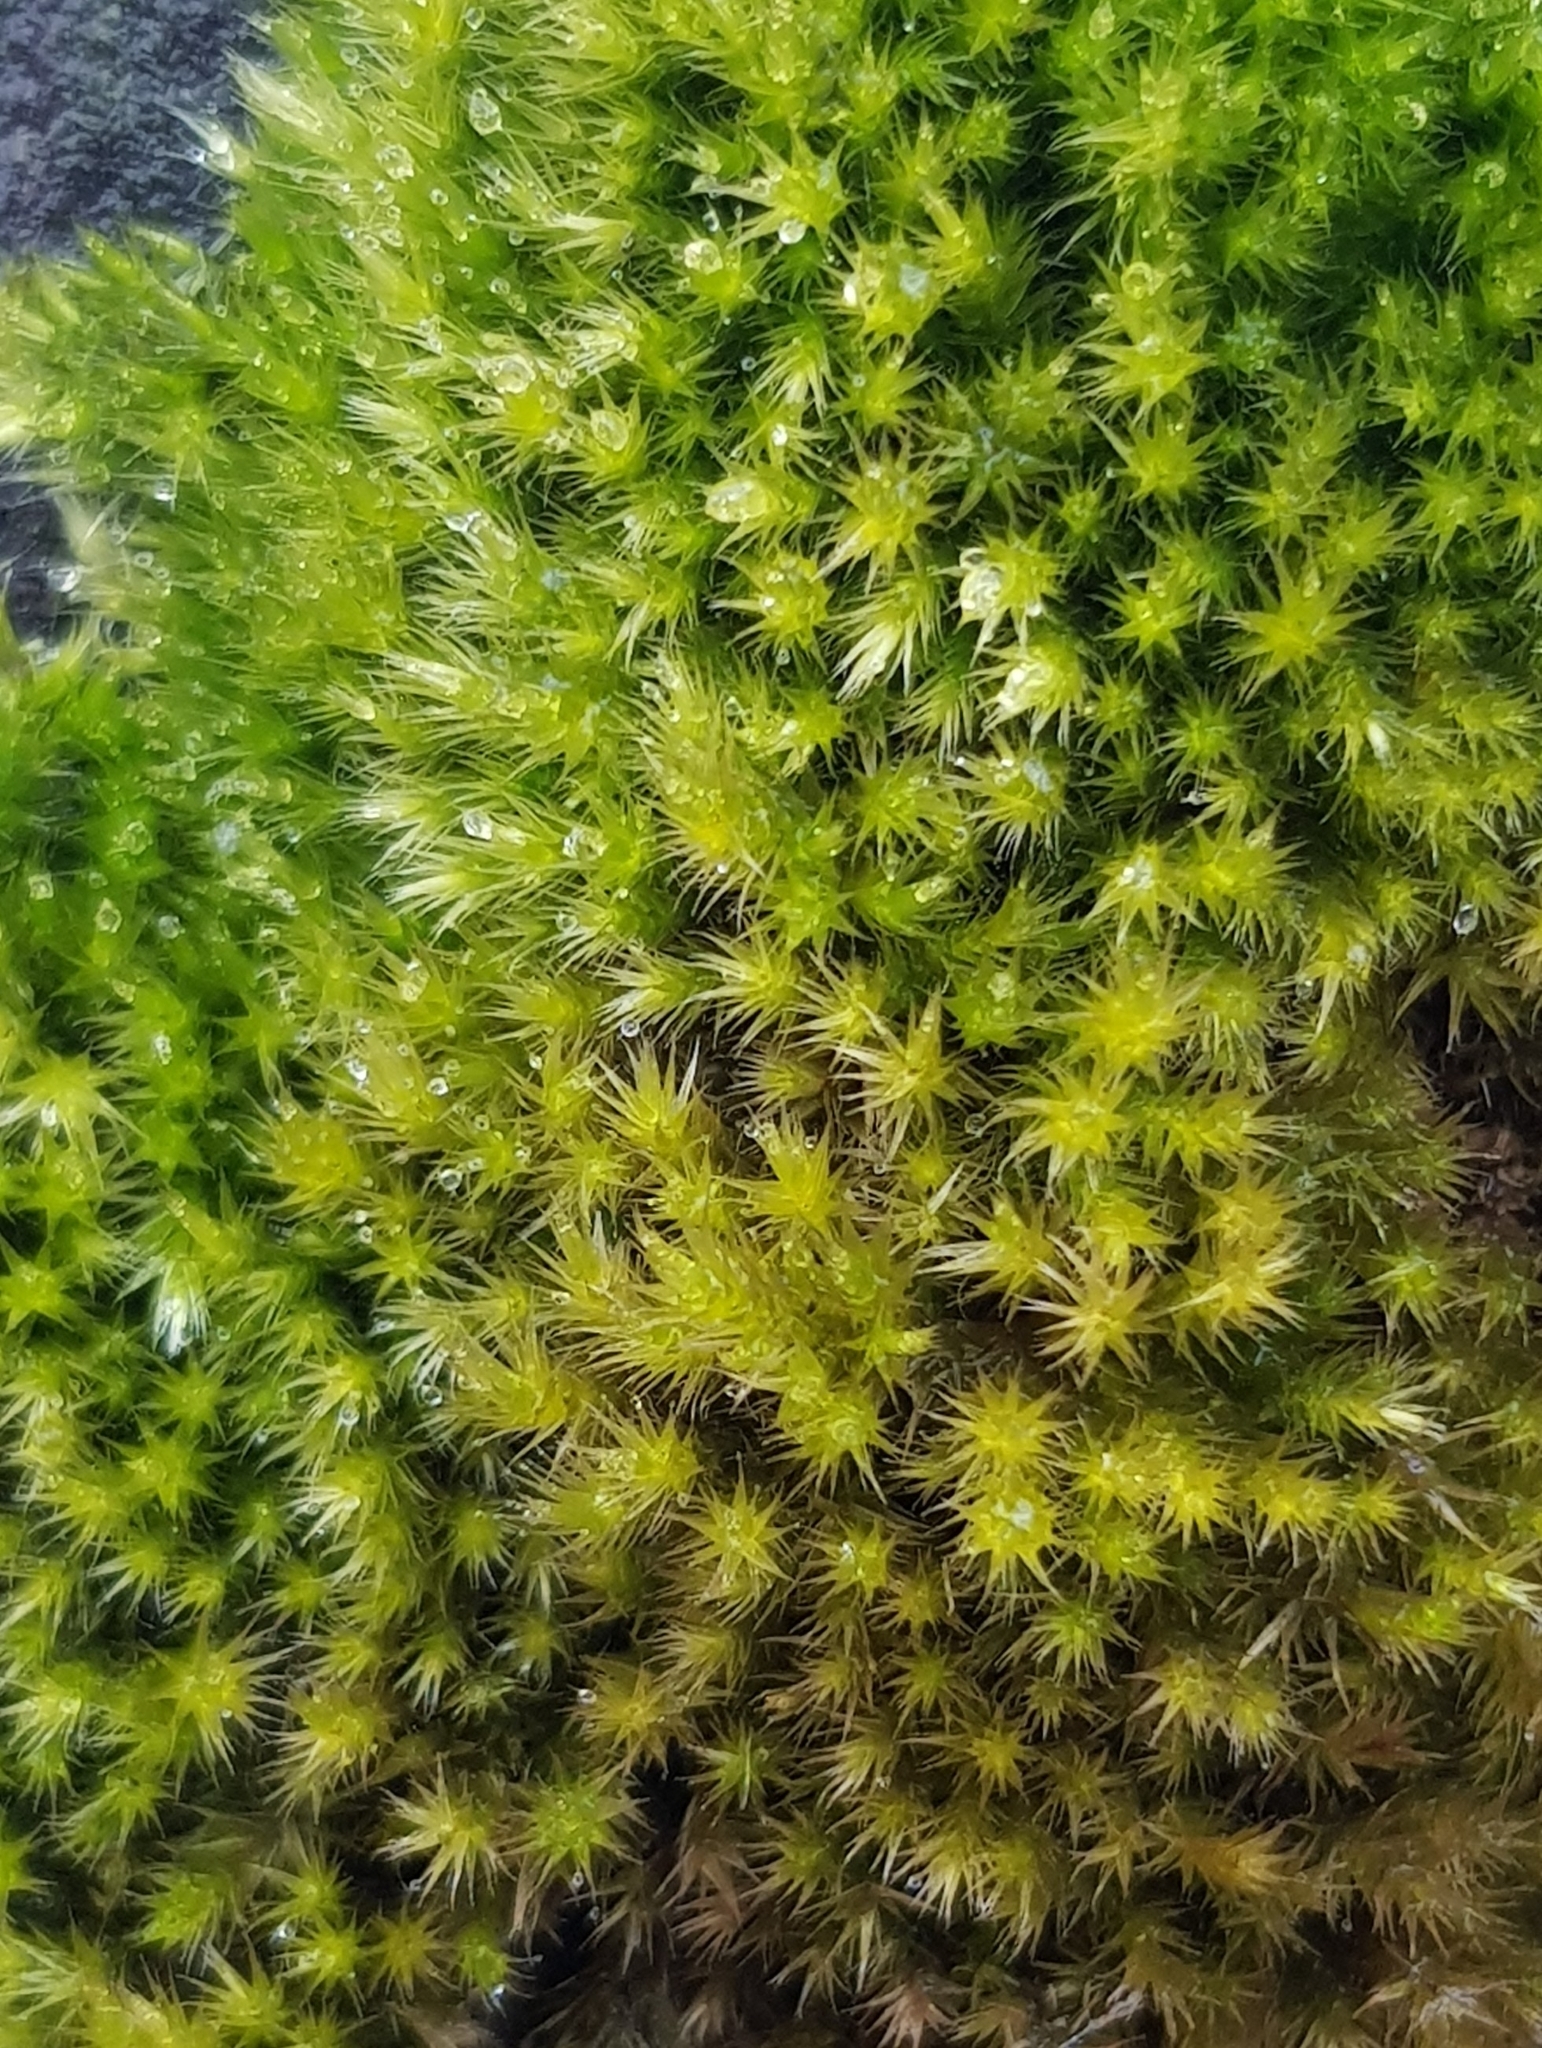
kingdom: Plantae
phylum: Bryophyta
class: Bryopsida
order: Hypnales
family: Brachytheciaceae
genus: Homalothecium
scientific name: Homalothecium sericeum
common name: Silky wall feather-moss
